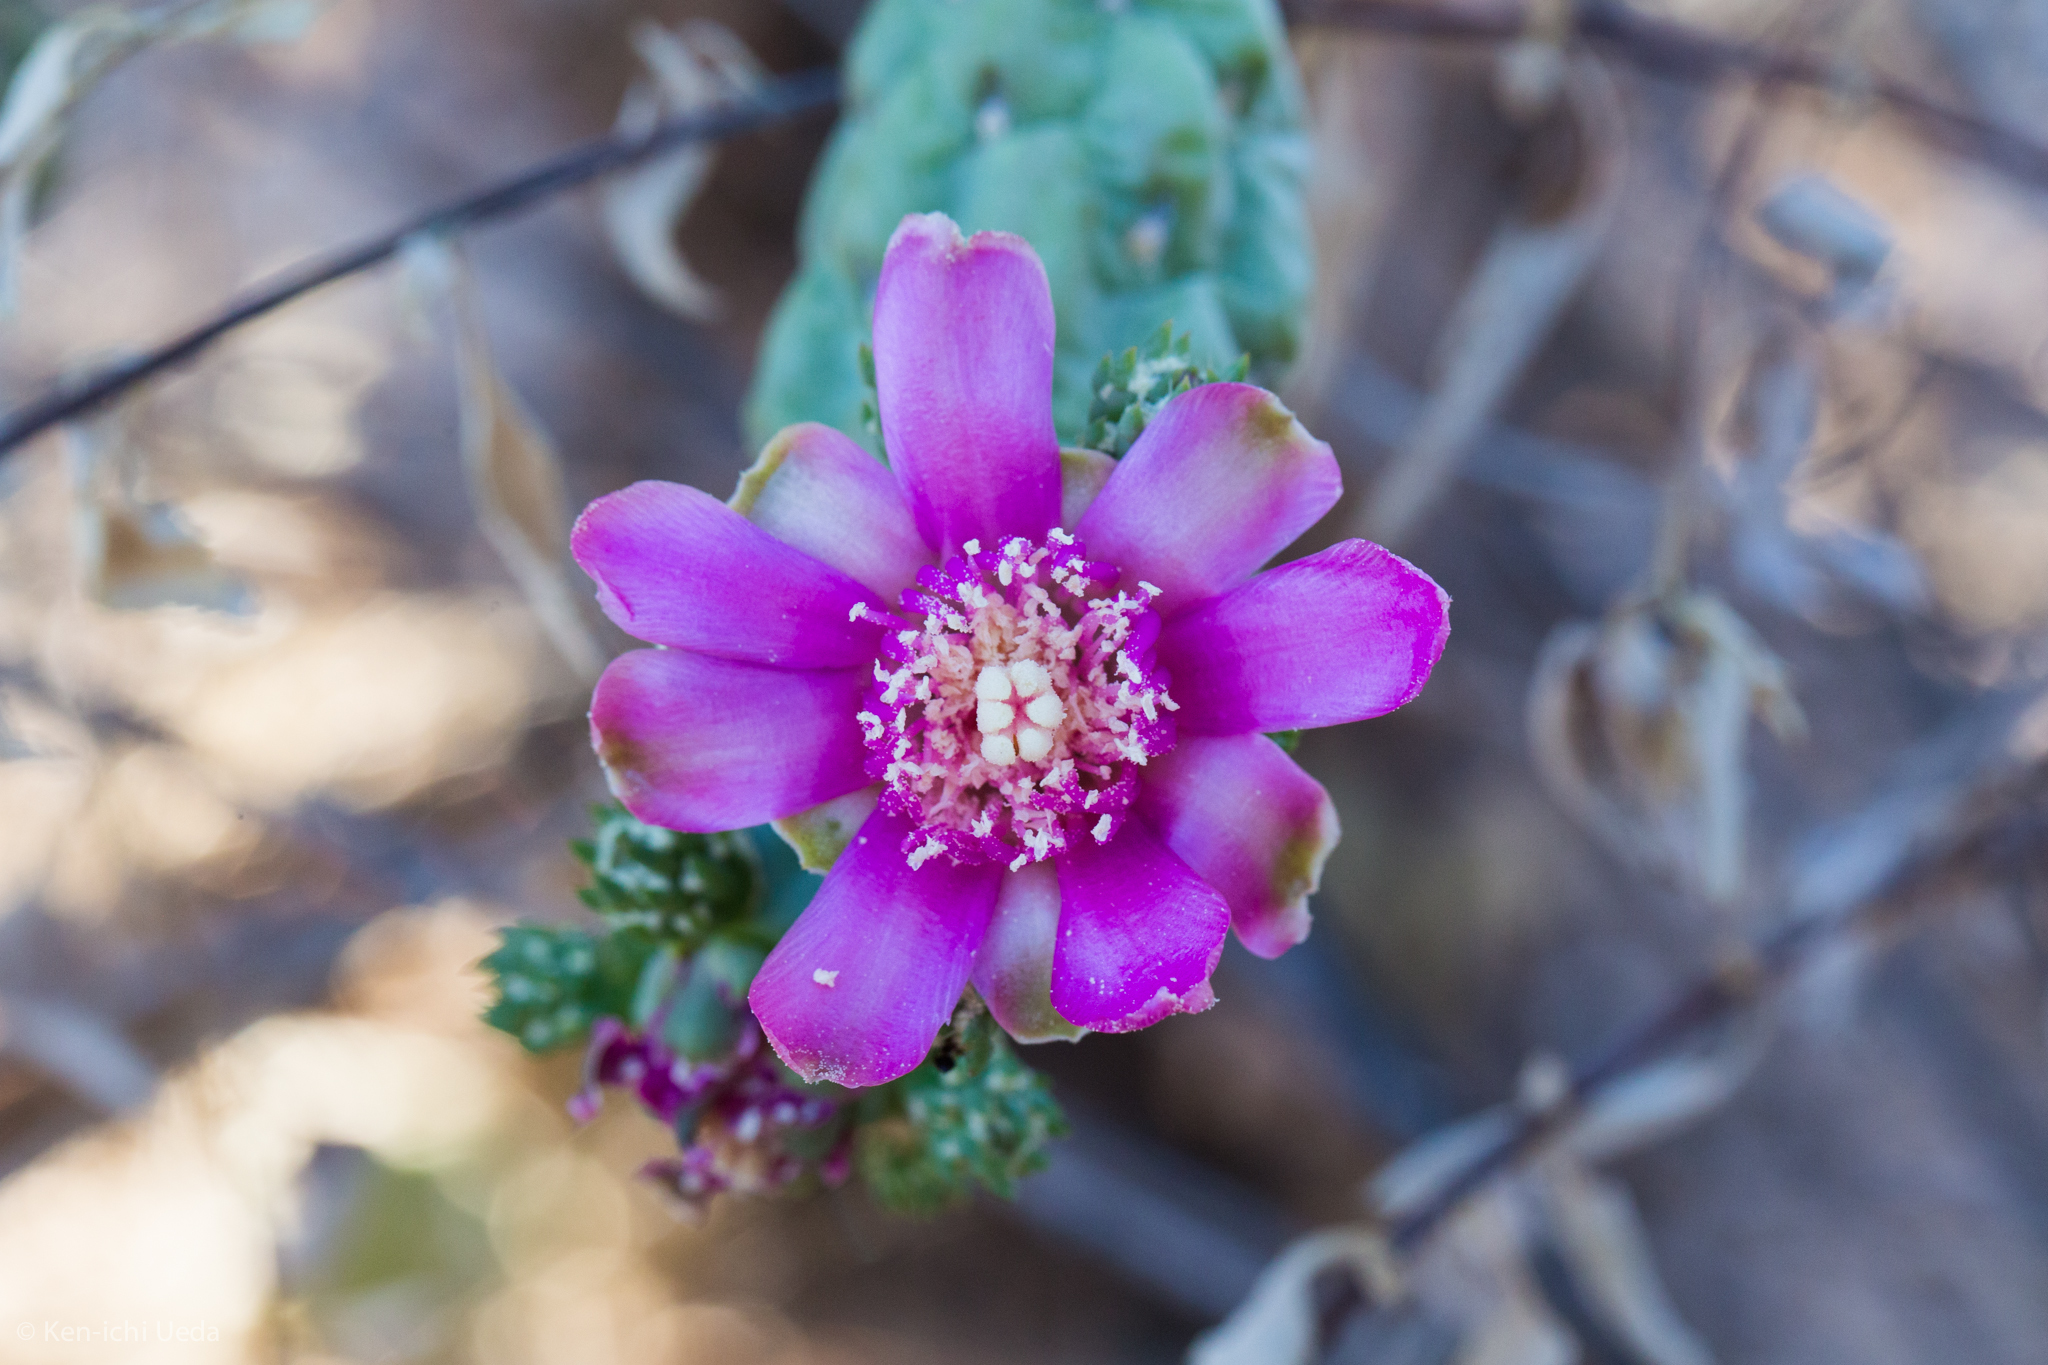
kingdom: Plantae
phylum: Tracheophyta
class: Magnoliopsida
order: Caryophyllales
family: Cactaceae
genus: Cylindropuntia
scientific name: Cylindropuntia fulgida
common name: Jumping cholla
